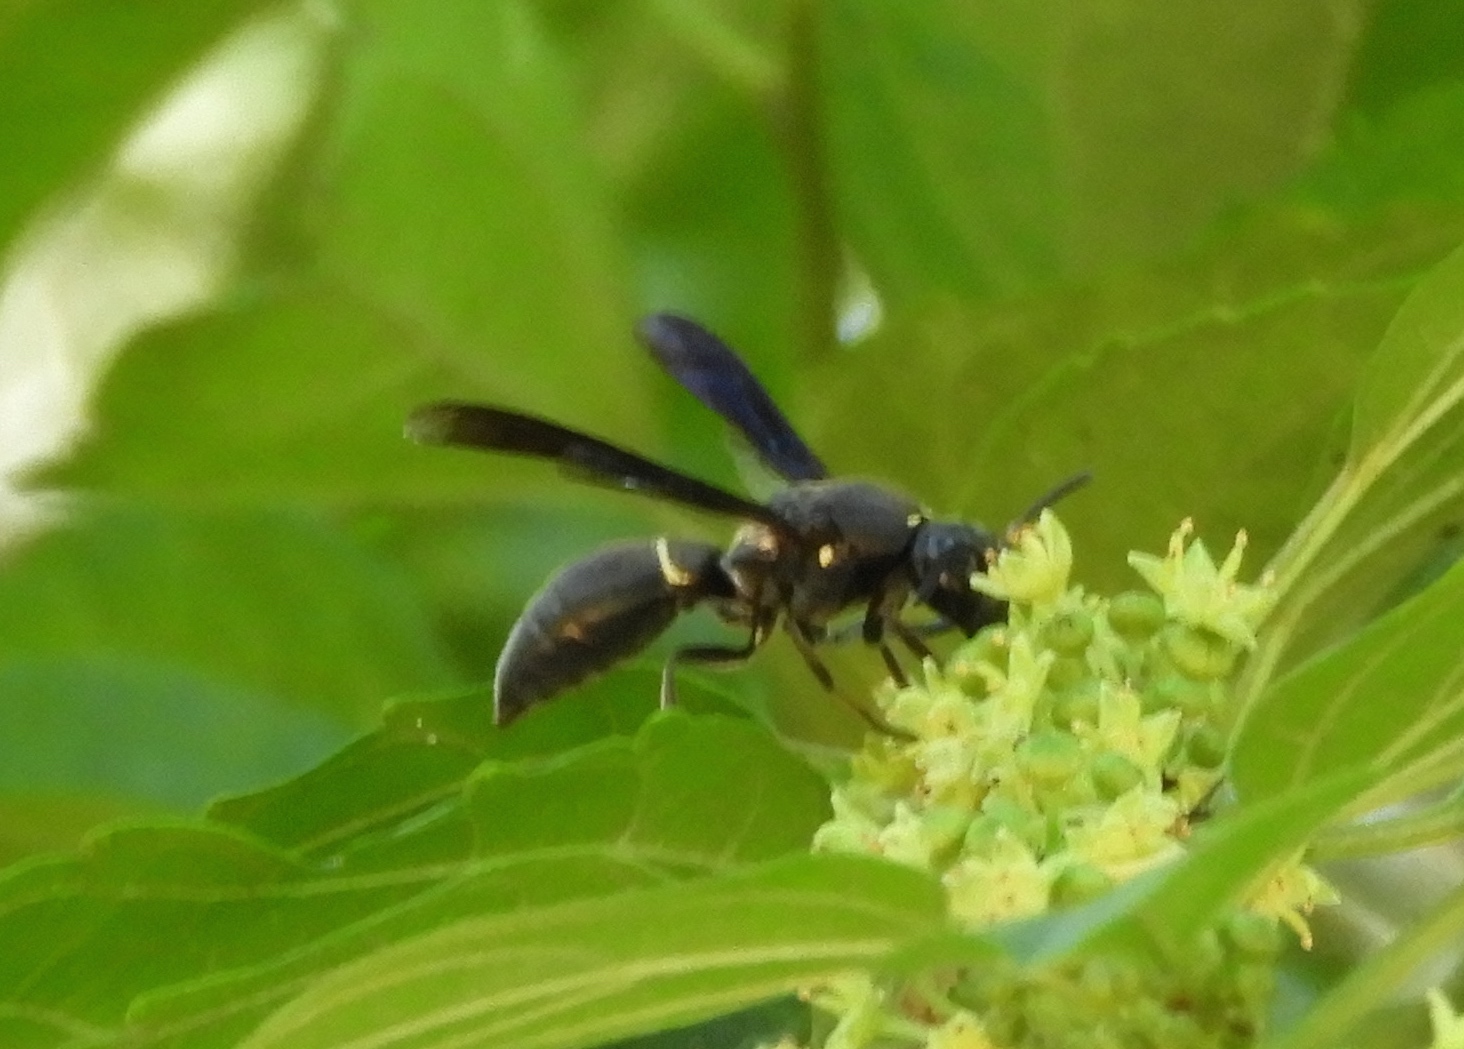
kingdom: Animalia
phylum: Arthropoda
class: Insecta
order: Hymenoptera
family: Eumenidae
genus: Monobia
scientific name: Monobia biangulata
